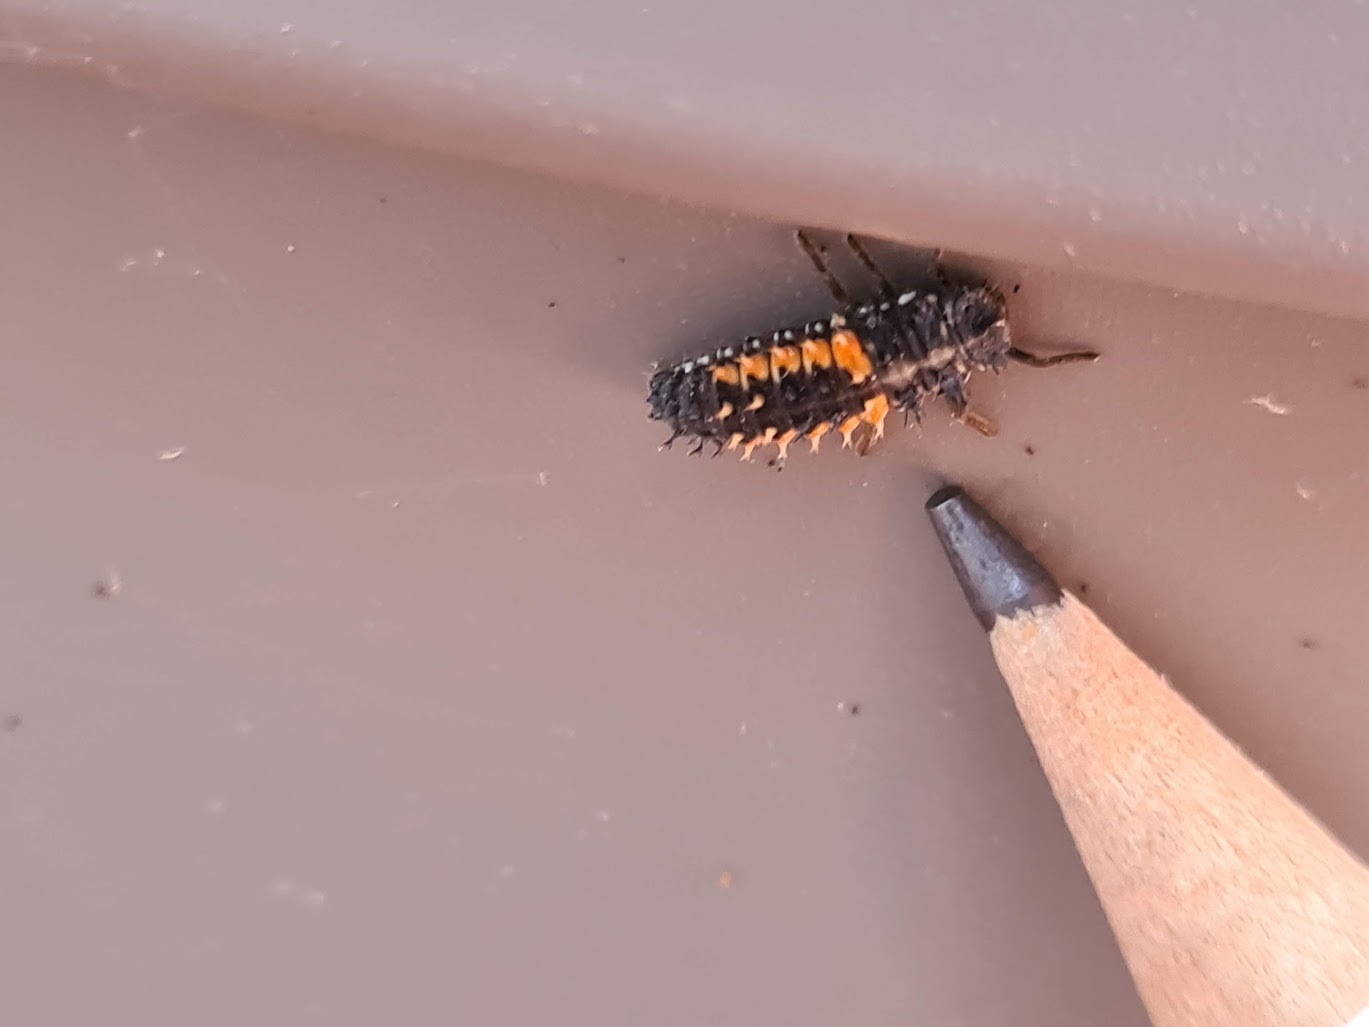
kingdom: Animalia
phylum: Arthropoda
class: Insecta
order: Coleoptera
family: Coccinellidae
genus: Harmonia
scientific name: Harmonia axyridis
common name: Harlequin ladybird
